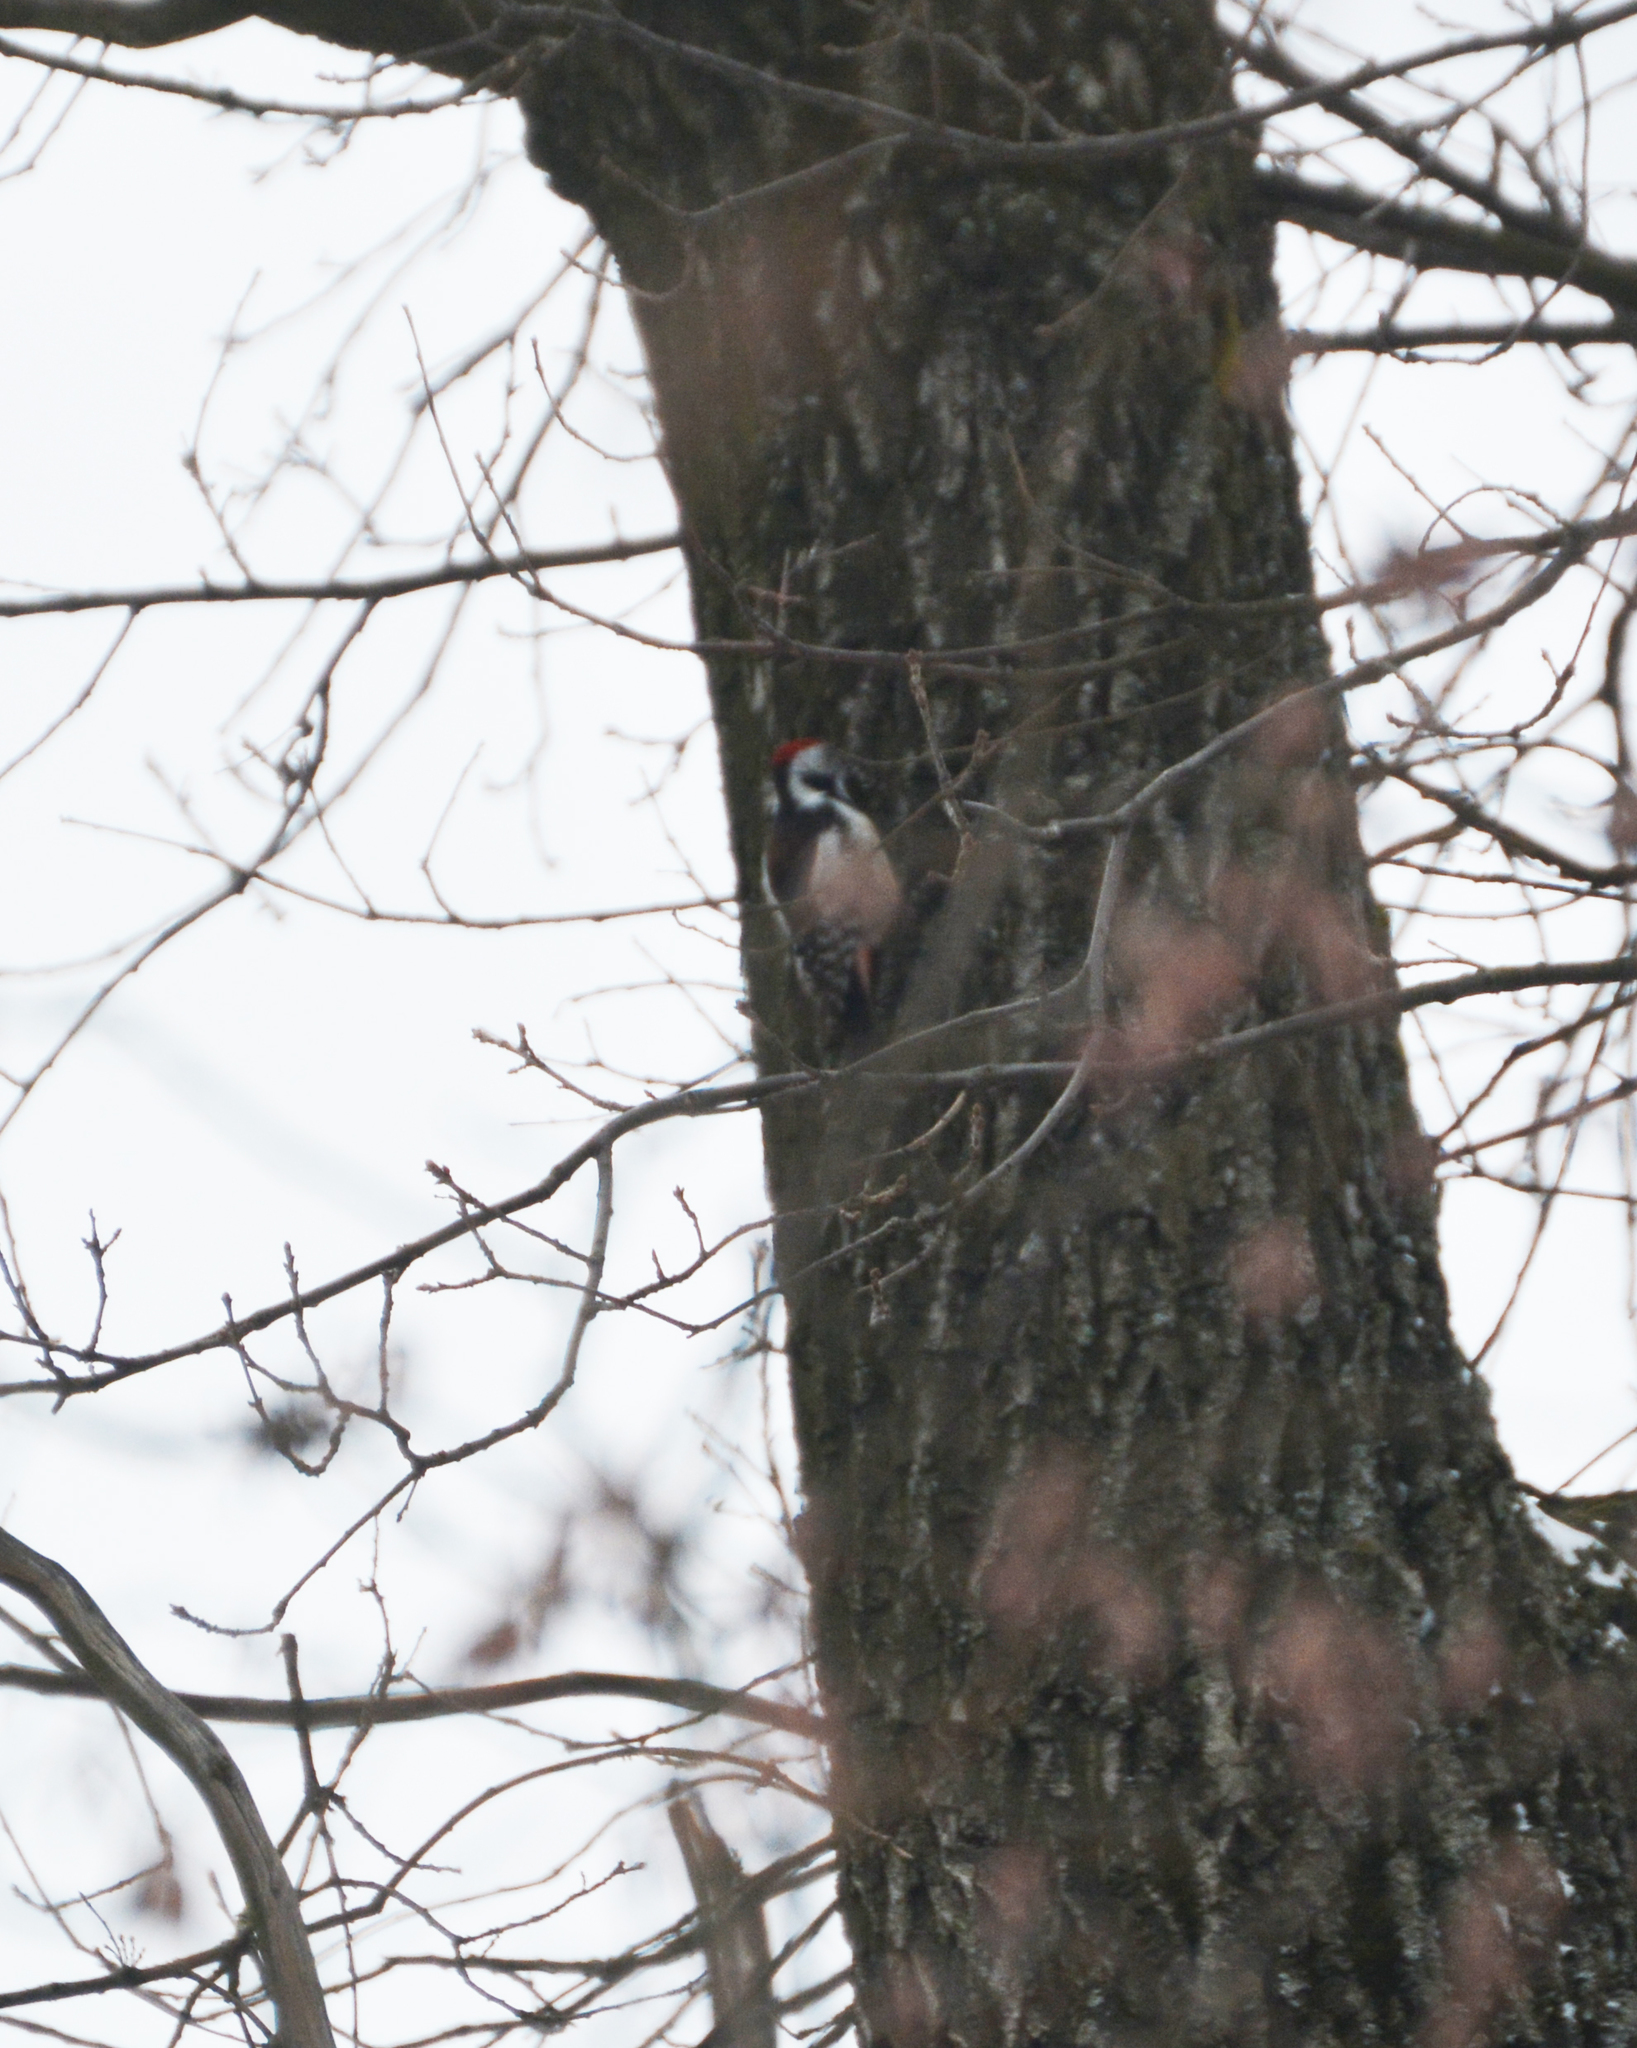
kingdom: Animalia
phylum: Chordata
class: Aves
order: Piciformes
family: Picidae
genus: Dendrocoptes
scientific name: Dendrocoptes medius
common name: Middle spotted woodpecker
